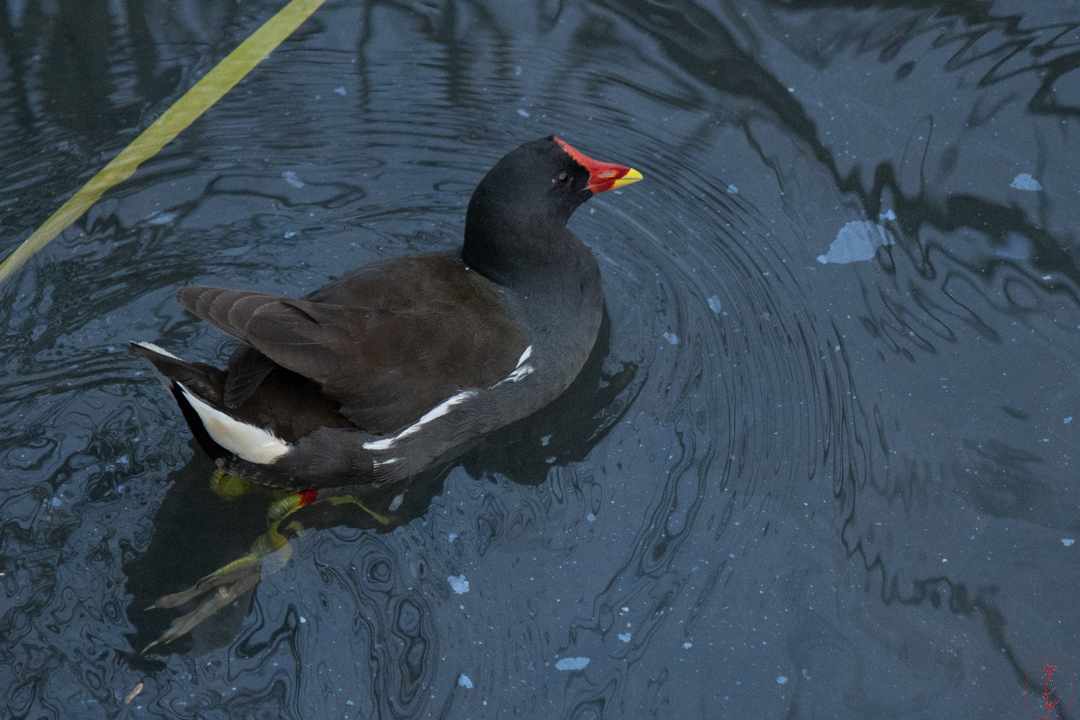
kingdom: Animalia
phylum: Chordata
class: Aves
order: Gruiformes
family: Rallidae
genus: Gallinula
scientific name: Gallinula chloropus
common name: Common moorhen
